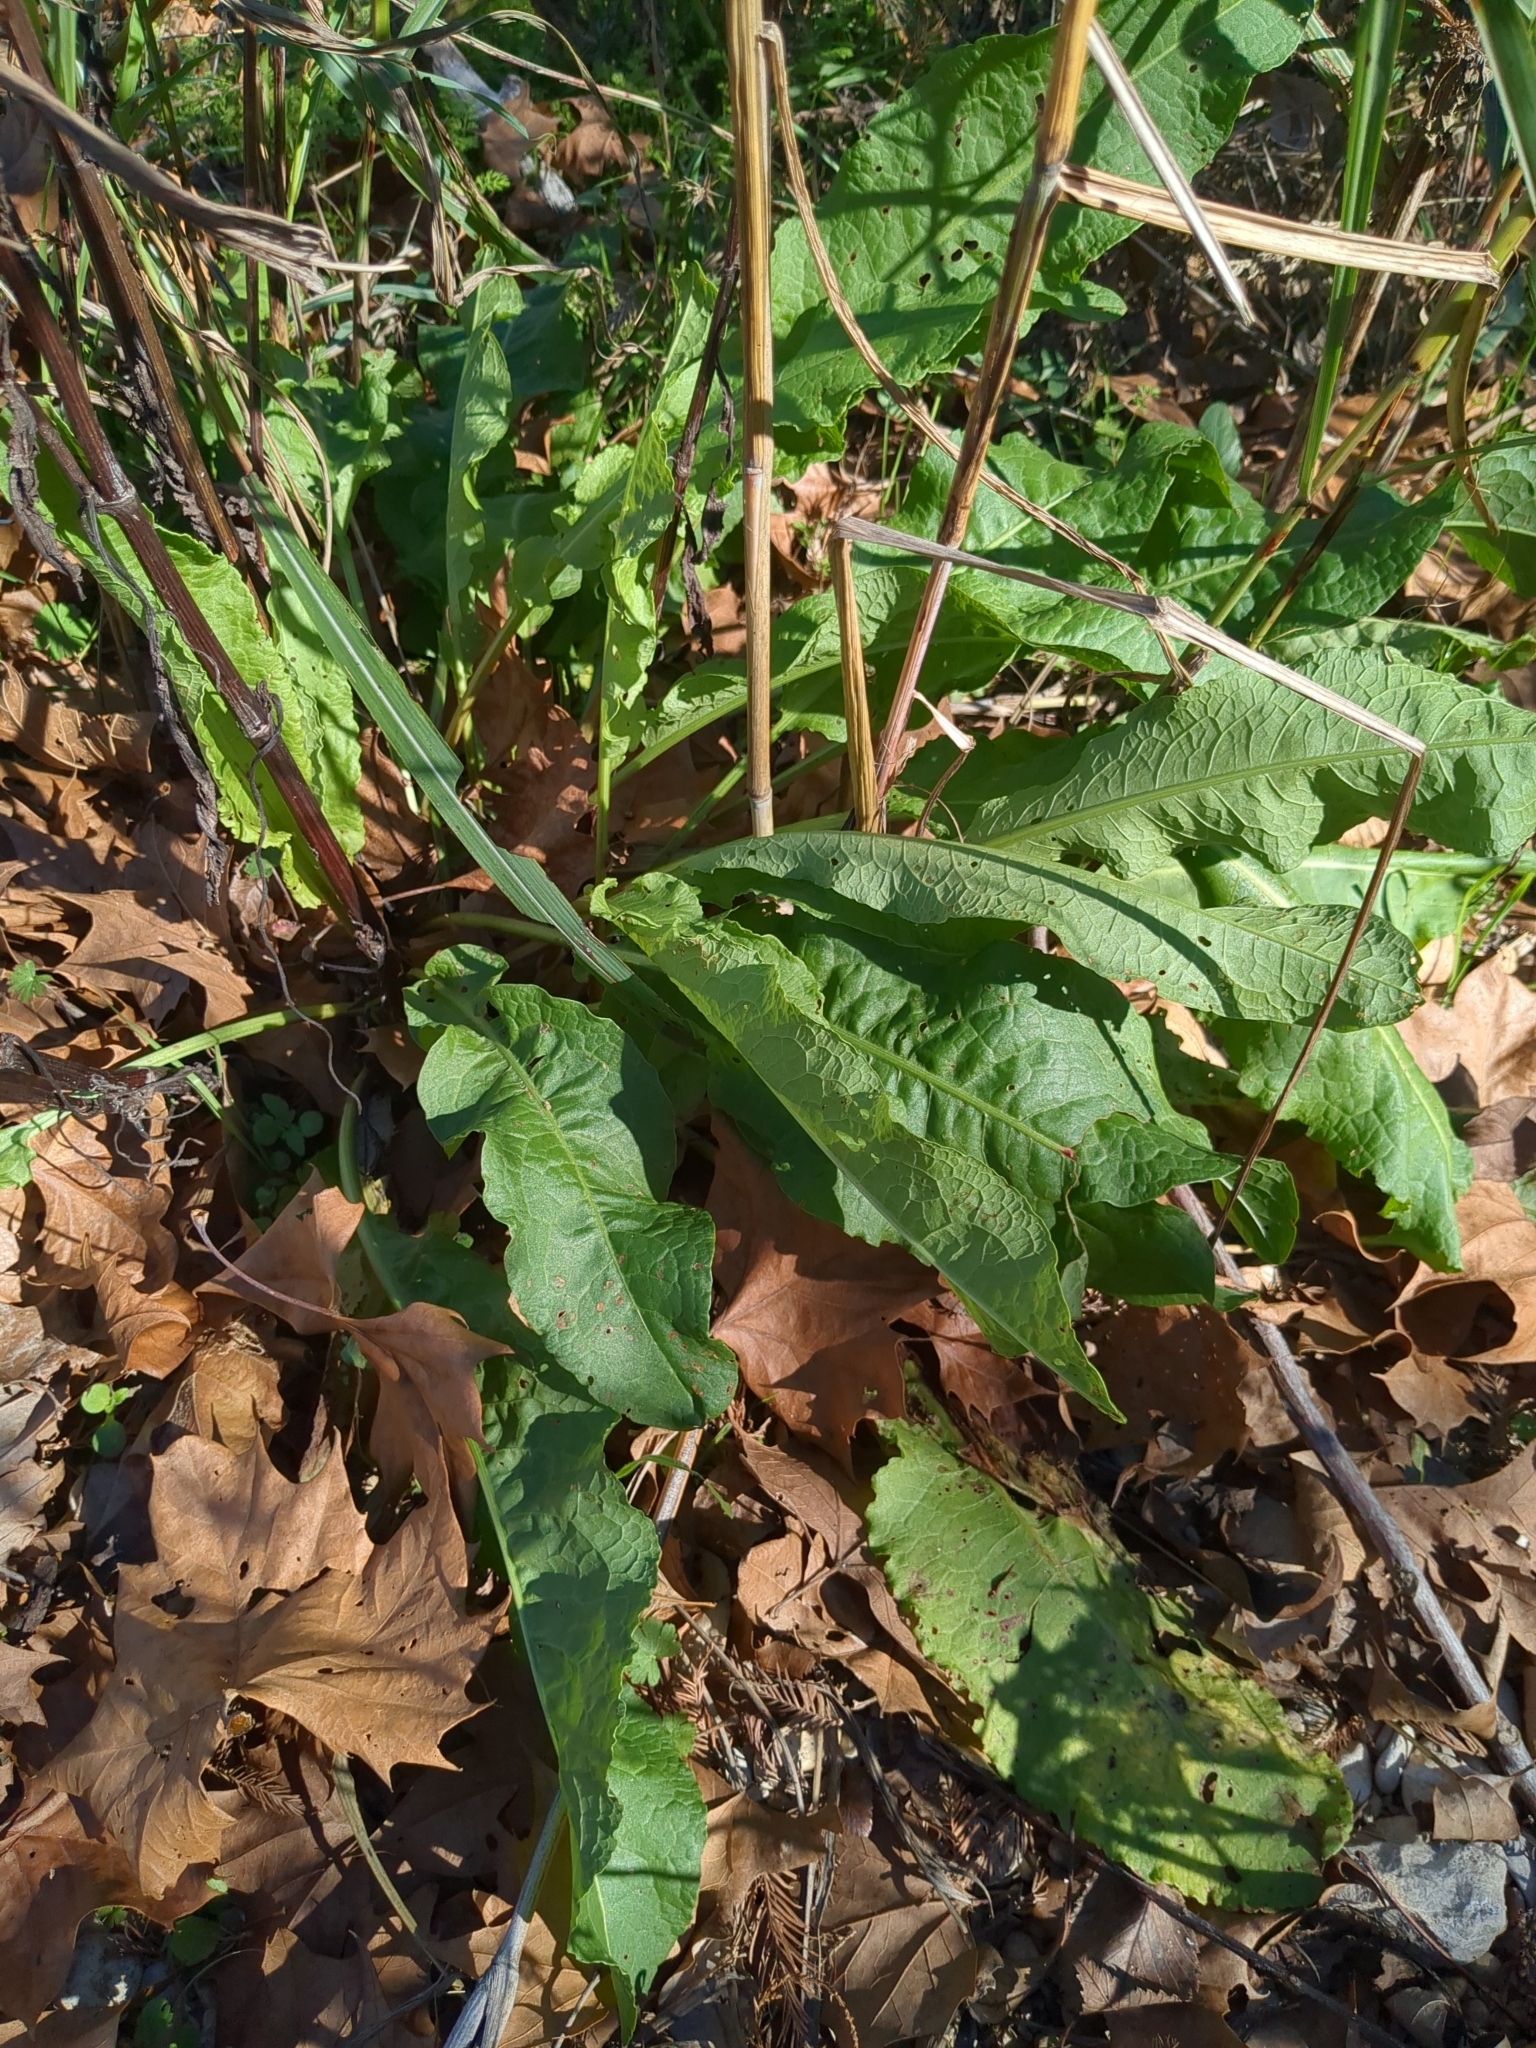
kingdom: Plantae
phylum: Tracheophyta
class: Magnoliopsida
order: Caryophyllales
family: Polygonaceae
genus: Rumex
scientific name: Rumex crispus
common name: Curled dock
